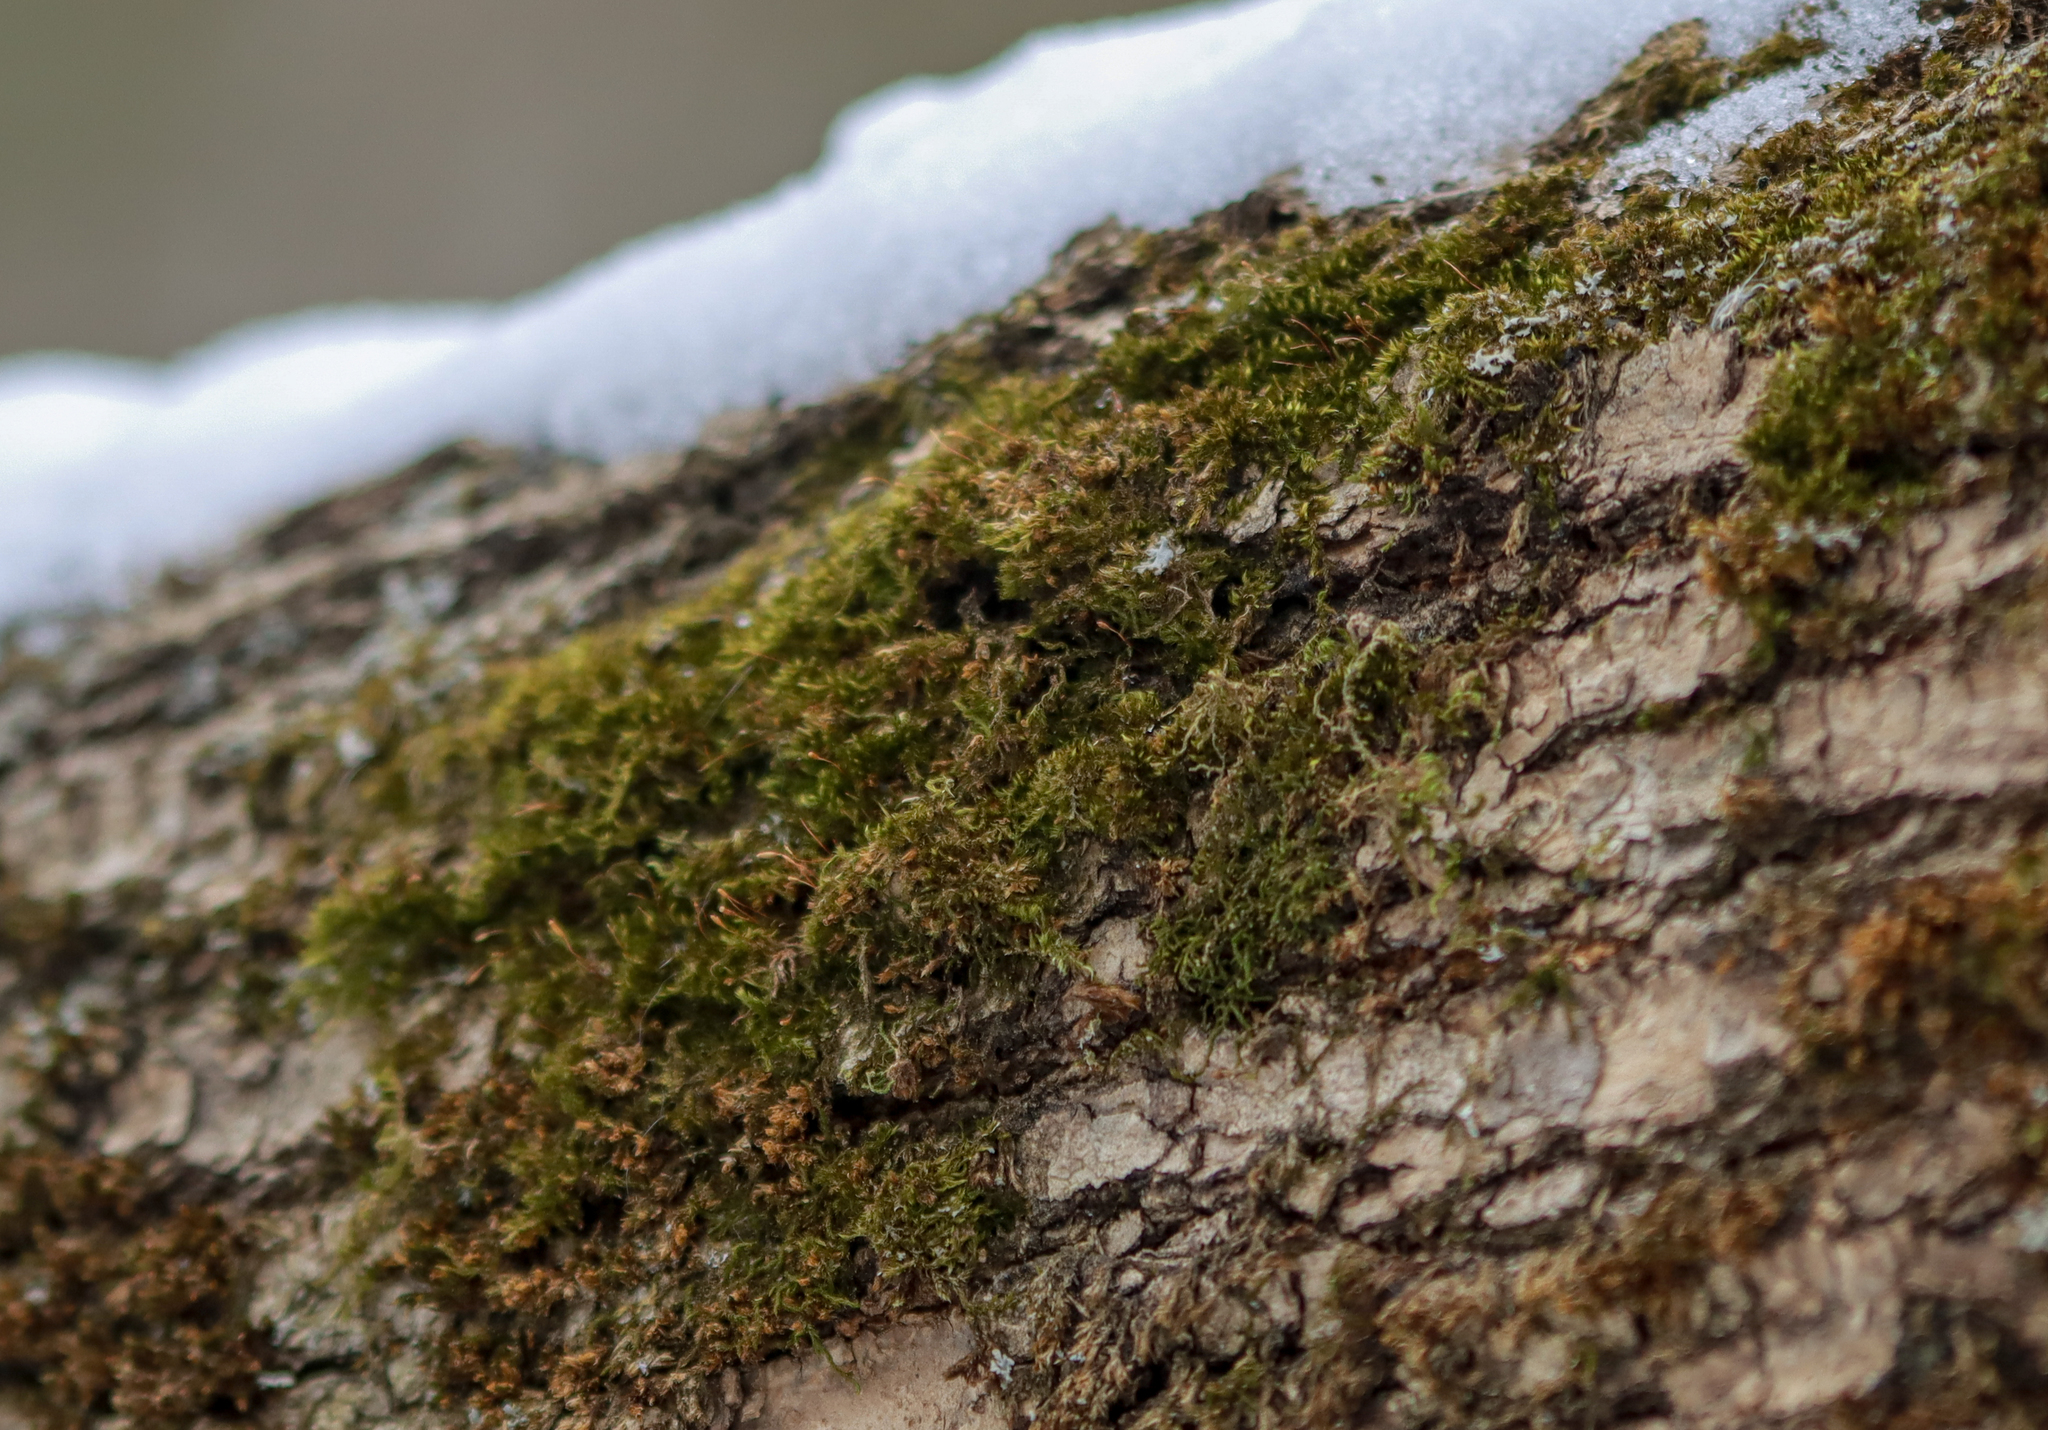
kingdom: Plantae
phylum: Bryophyta
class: Bryopsida
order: Hypnales
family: Pylaisiadelphaceae
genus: Platygyrium
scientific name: Platygyrium repens
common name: Flat-brocade moss
